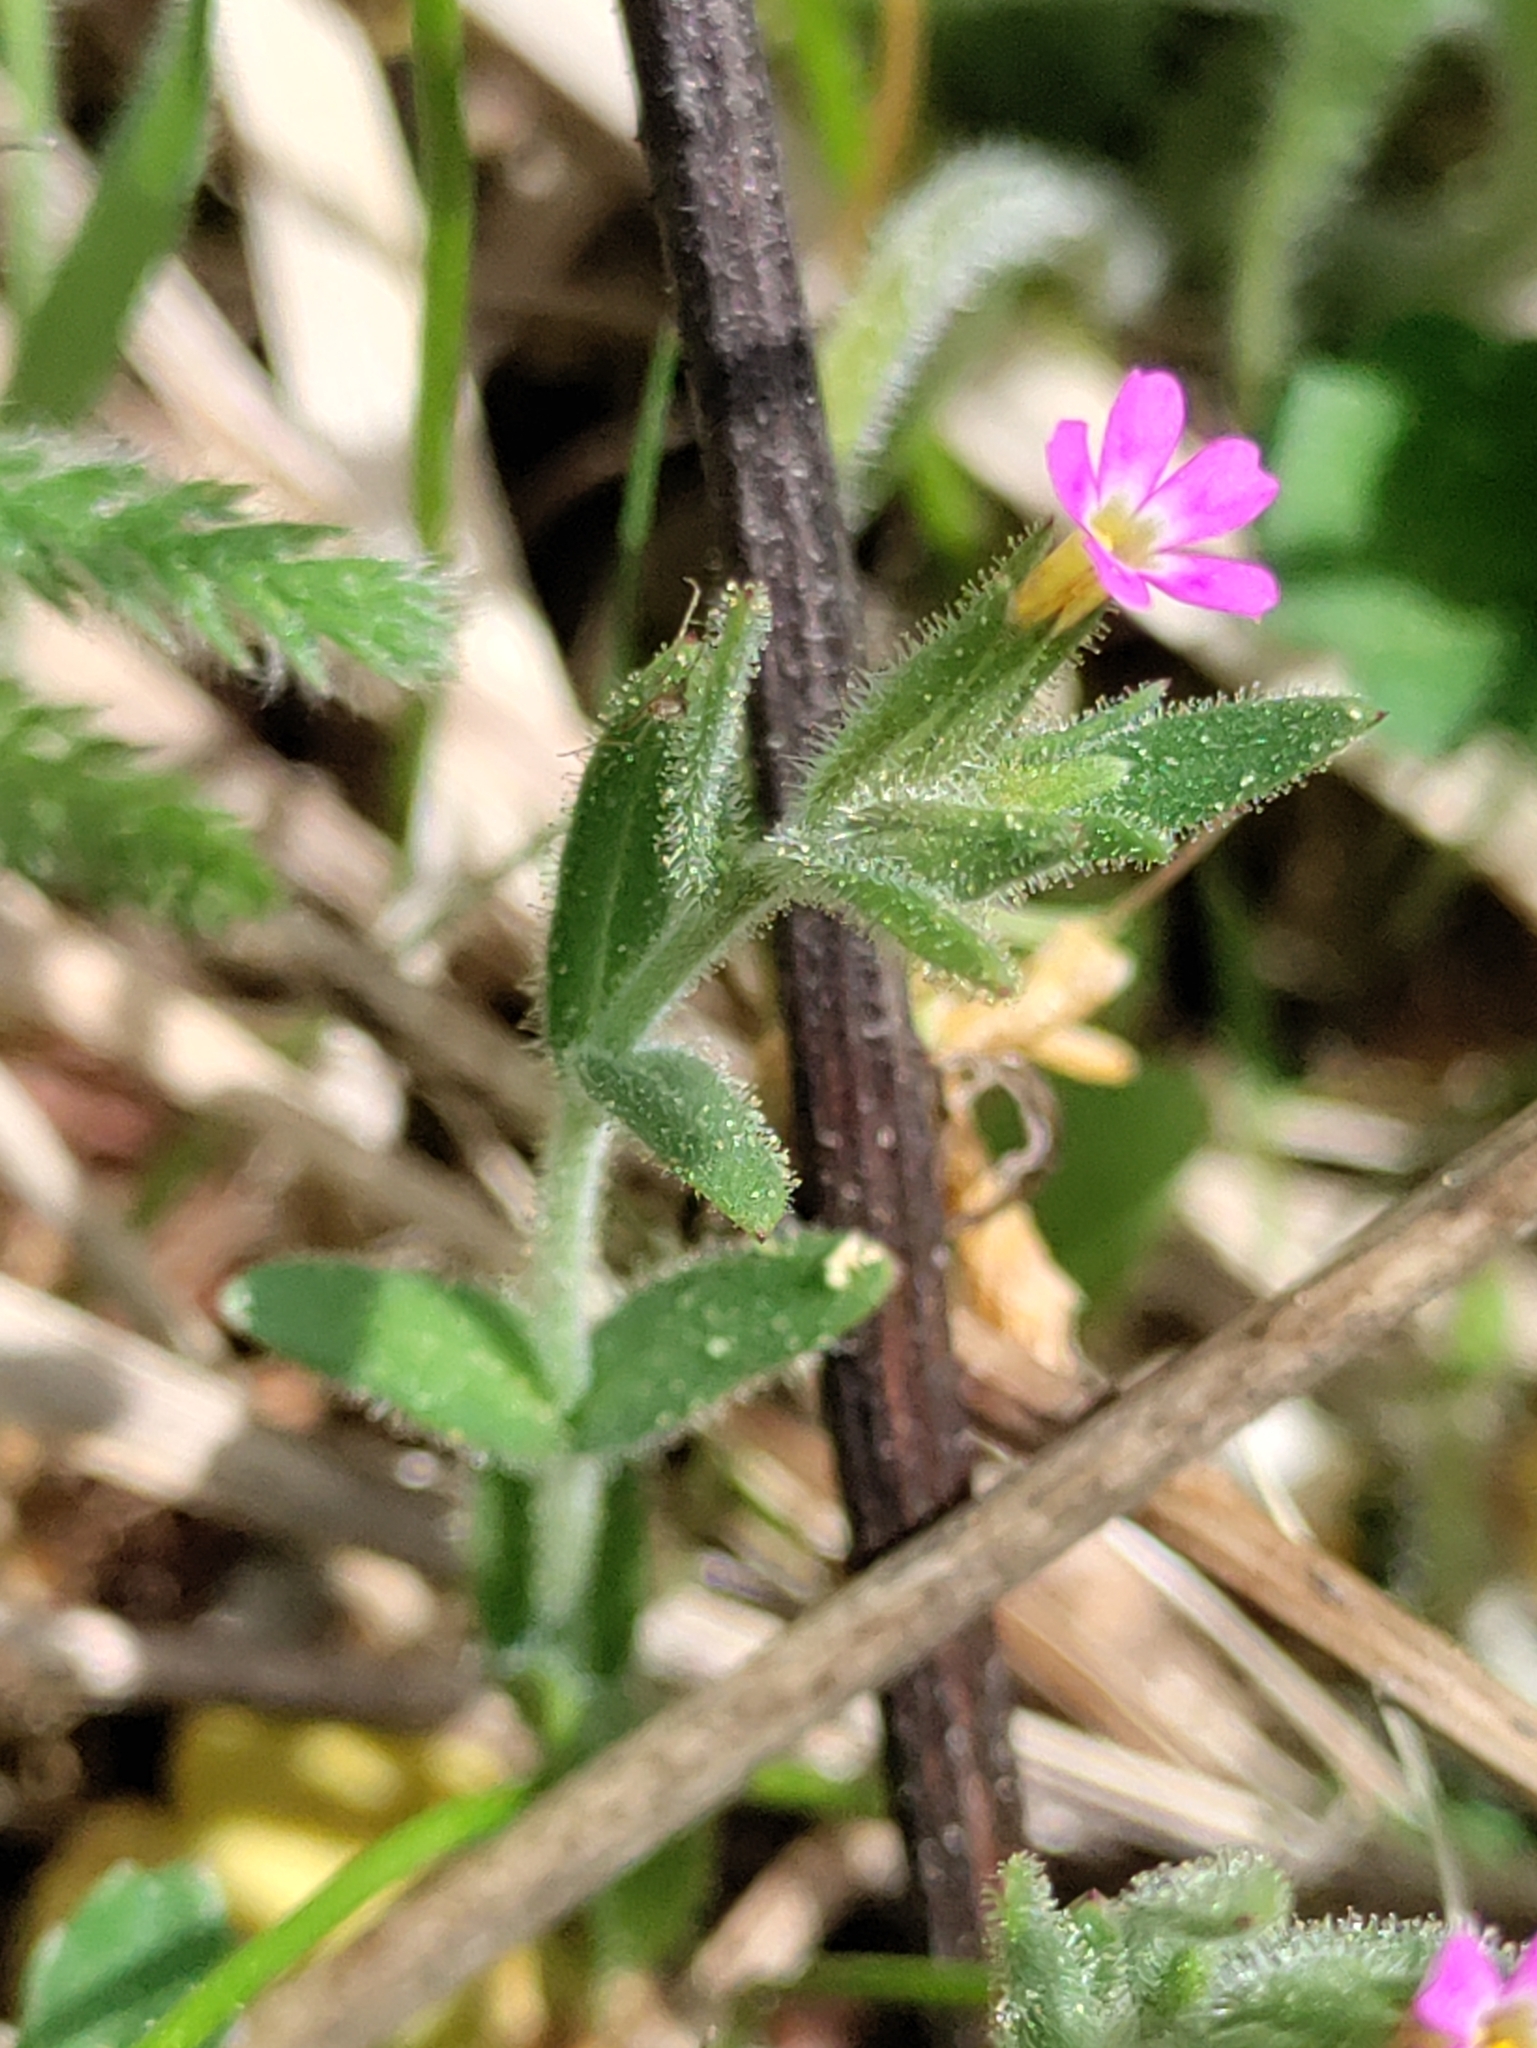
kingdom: Plantae
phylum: Tracheophyta
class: Magnoliopsida
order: Ericales
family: Polemoniaceae
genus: Phlox
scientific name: Phlox gracilis
